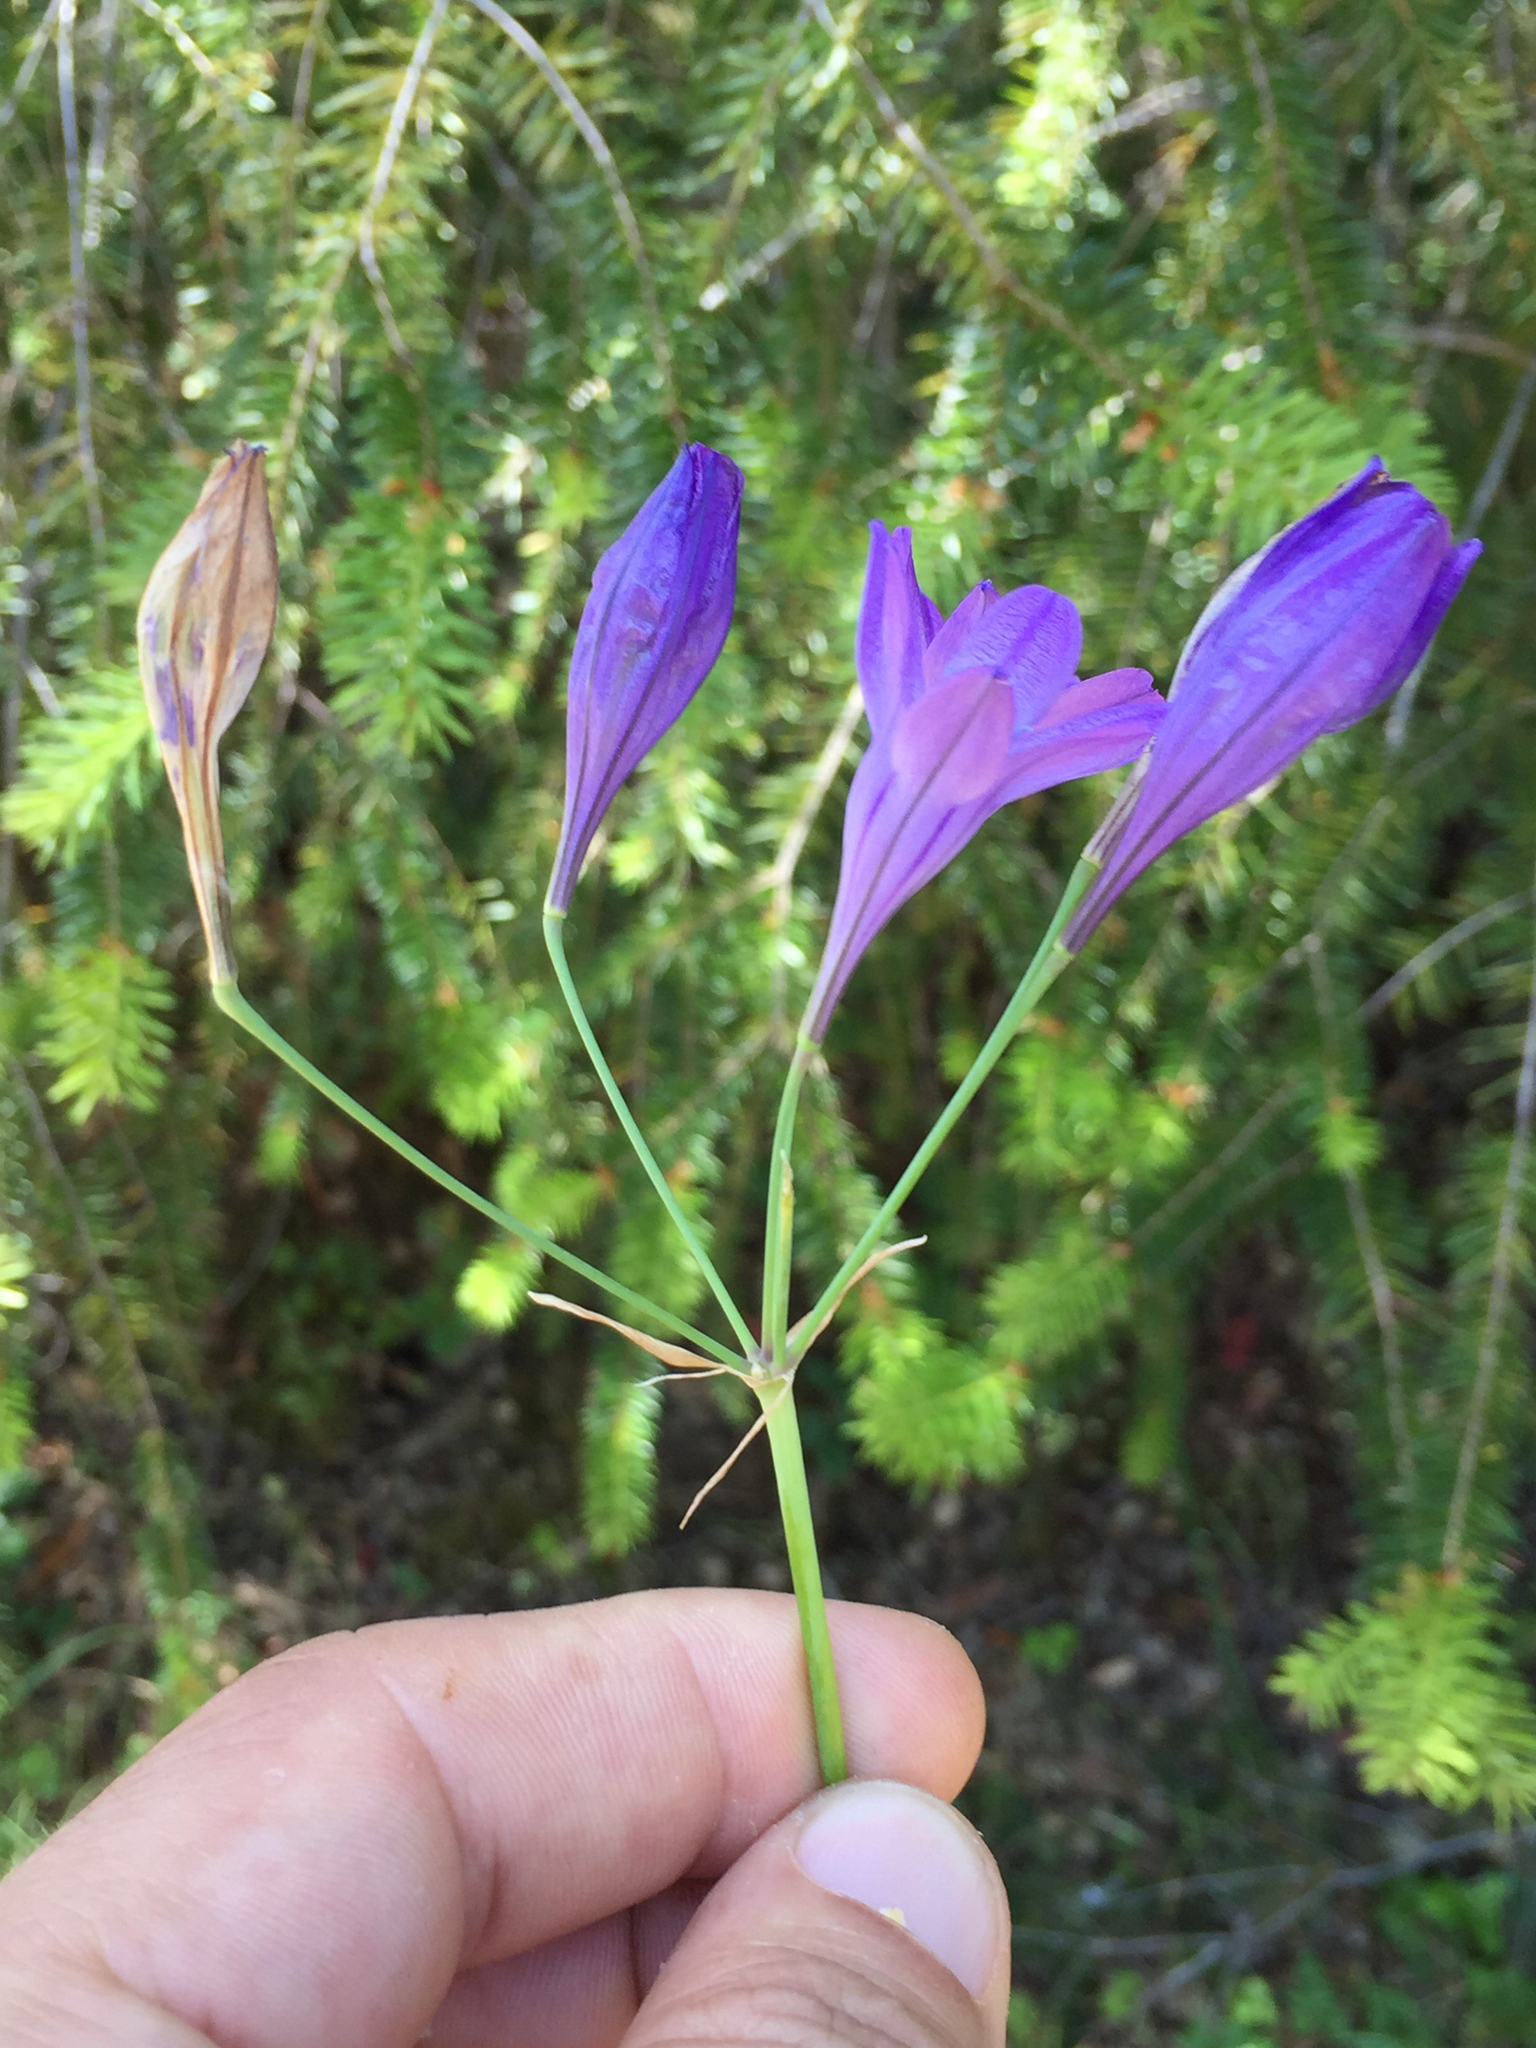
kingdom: Plantae
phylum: Tracheophyta
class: Liliopsida
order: Asparagales
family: Asparagaceae
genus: Triteleia
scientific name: Triteleia laxa
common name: Triplet-lily
